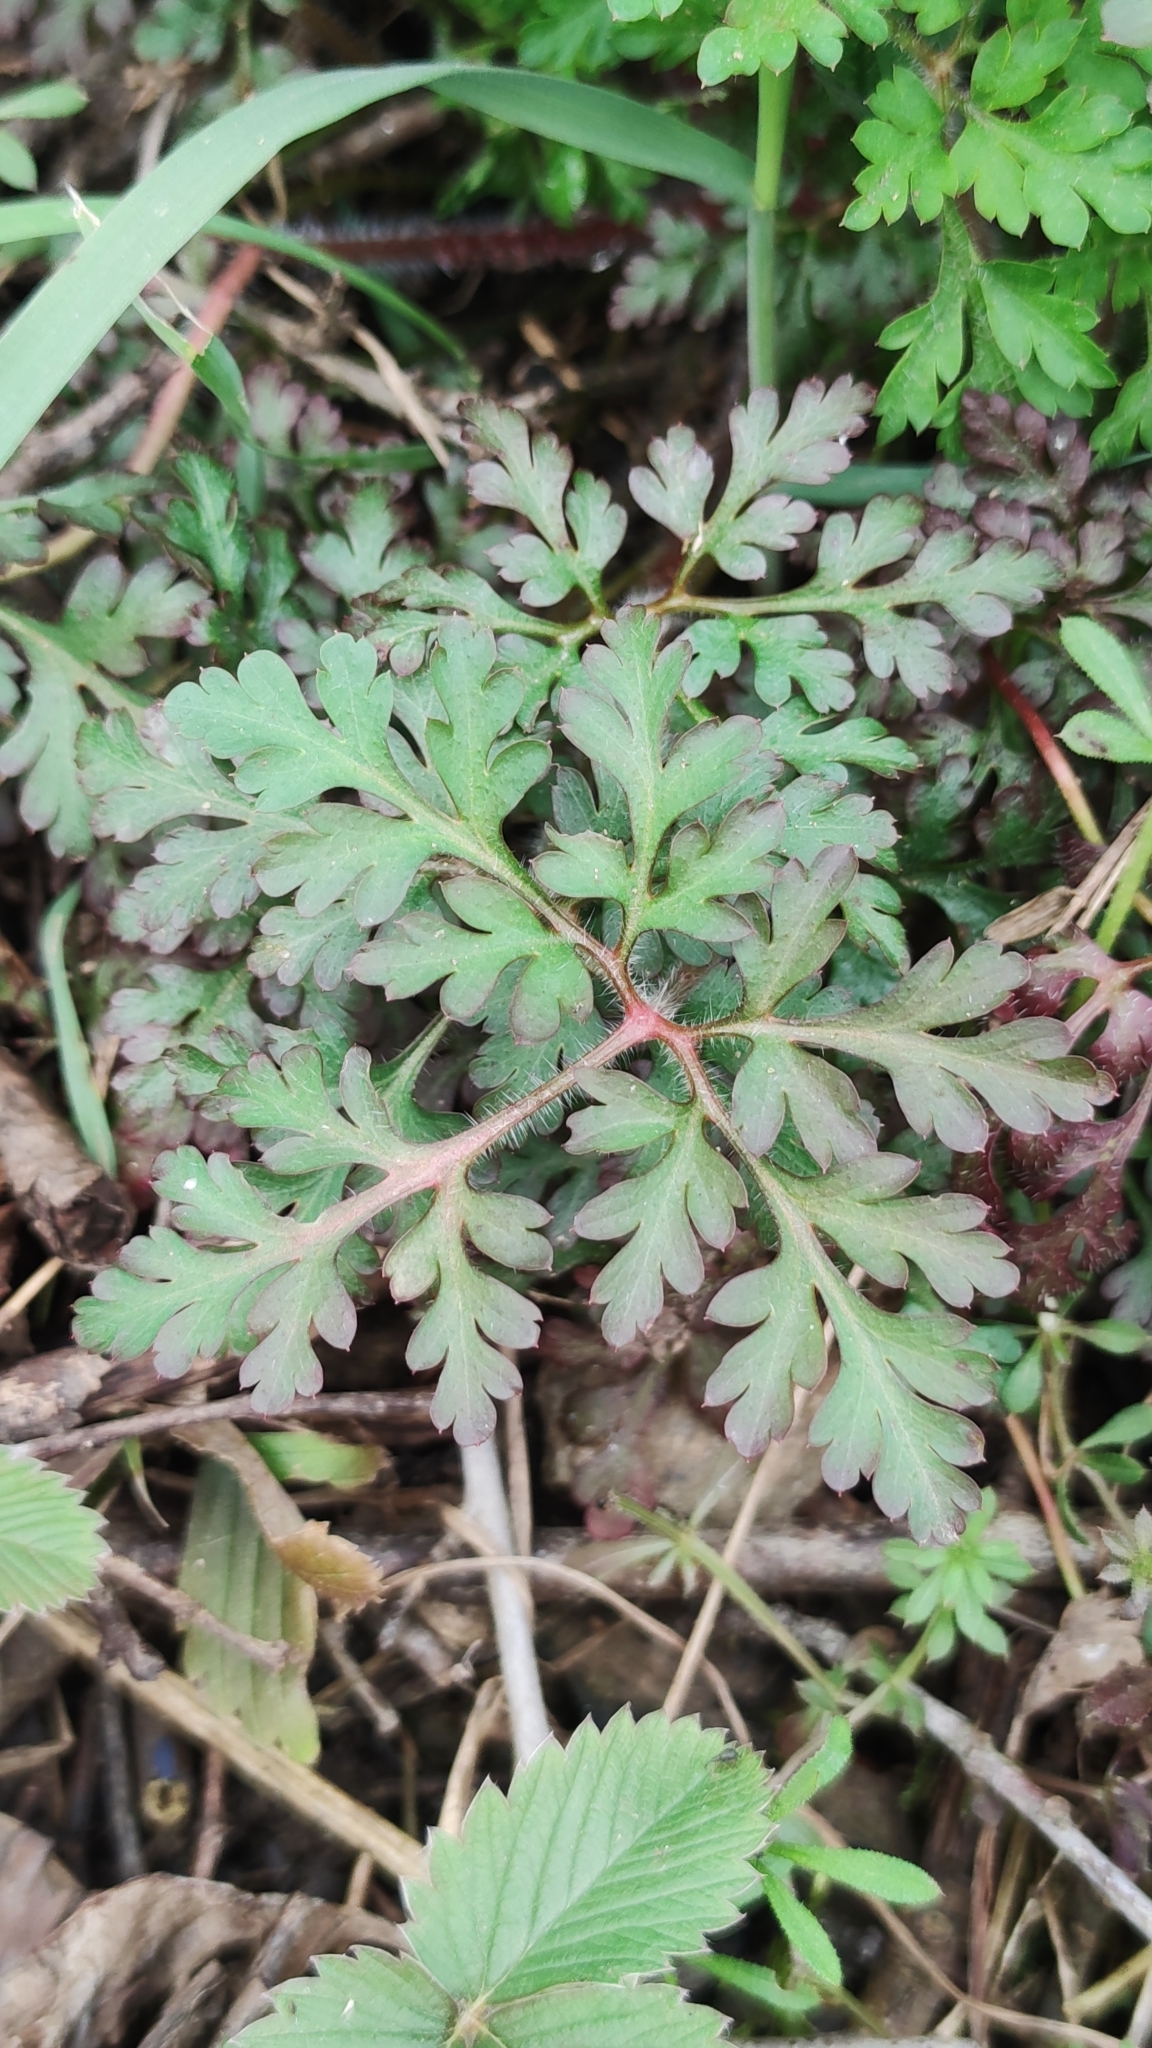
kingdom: Plantae
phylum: Tracheophyta
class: Magnoliopsida
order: Geraniales
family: Geraniaceae
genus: Geranium
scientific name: Geranium robertianum
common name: Herb-robert
